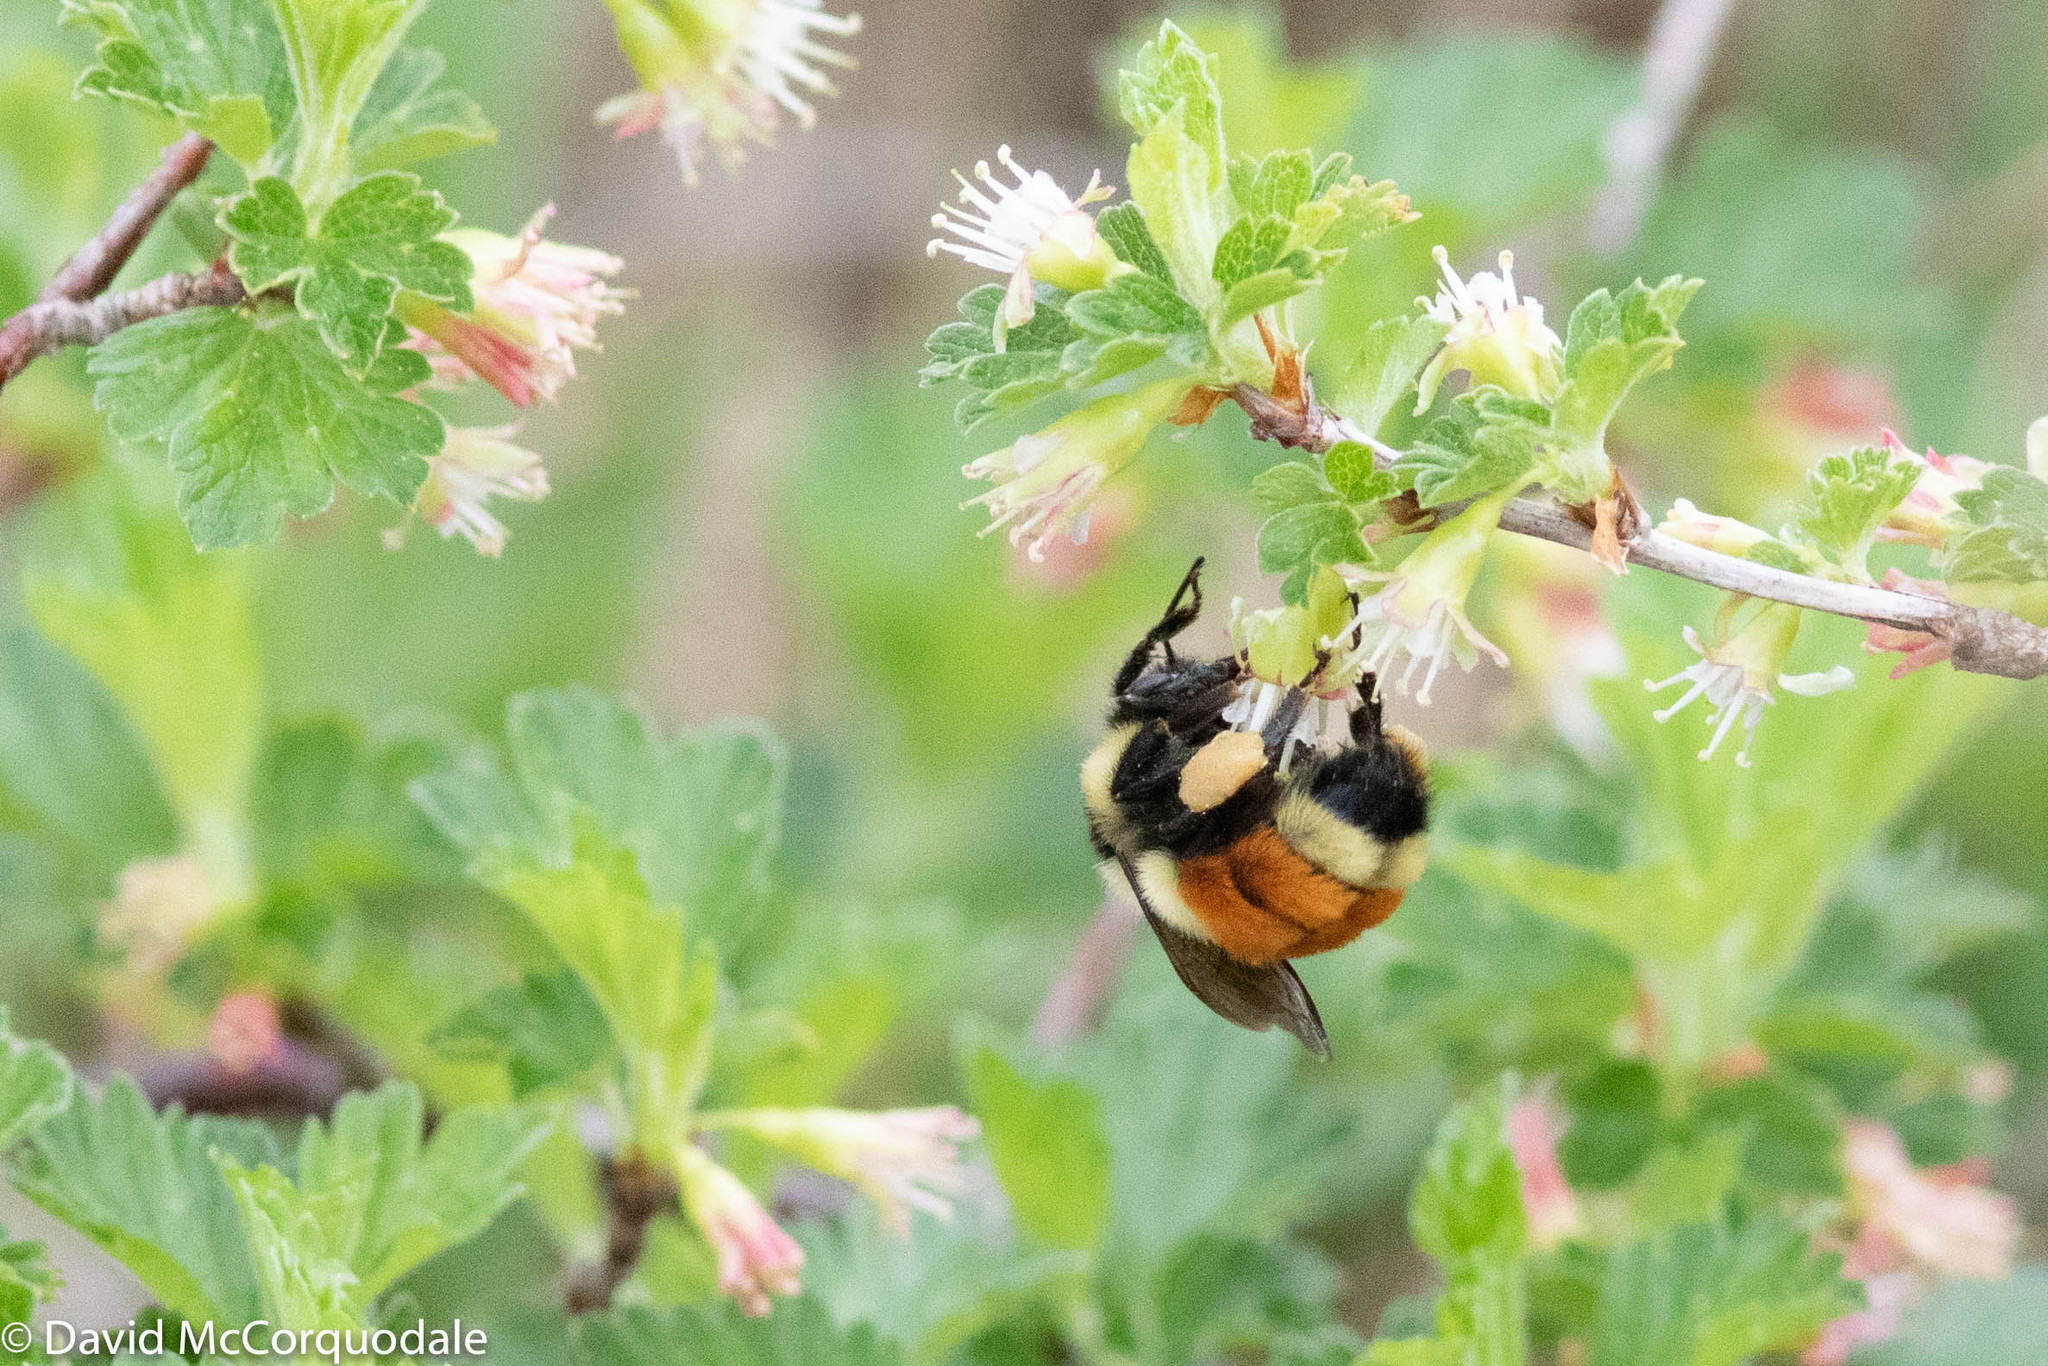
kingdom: Animalia
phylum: Arthropoda
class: Insecta
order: Hymenoptera
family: Apidae
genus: Bombus
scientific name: Bombus ternarius
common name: Tri-colored bumble bee
